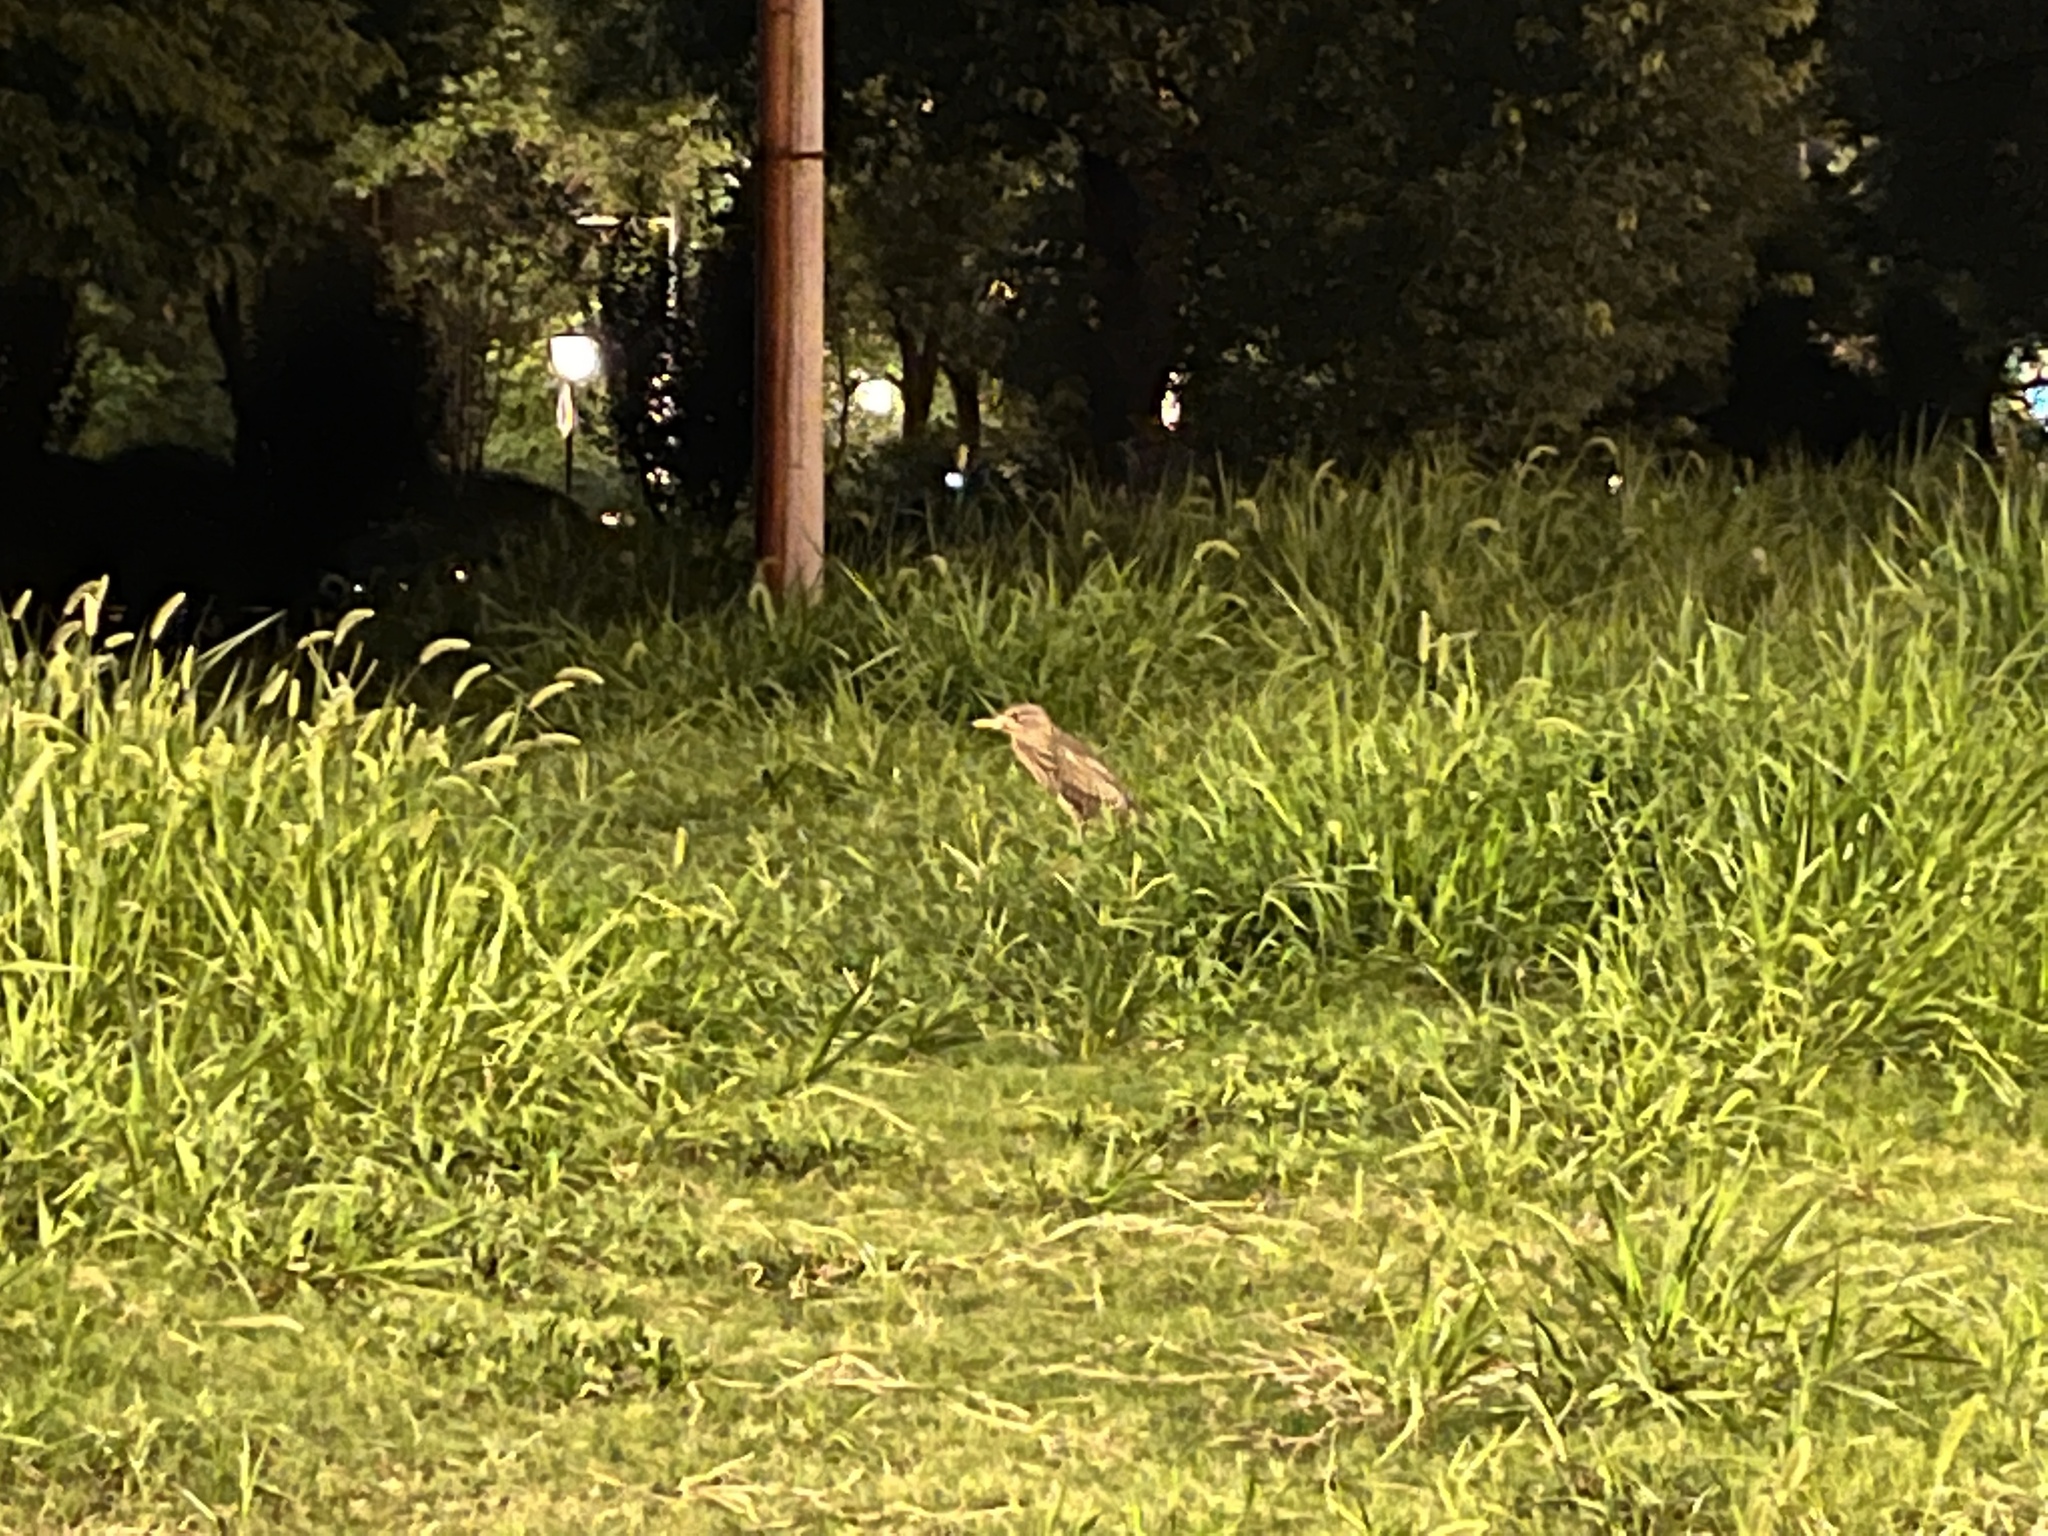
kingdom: Animalia
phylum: Chordata
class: Aves
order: Pelecaniformes
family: Ardeidae
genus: Ardeola
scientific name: Ardeola bacchus
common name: Chinese pond heron
